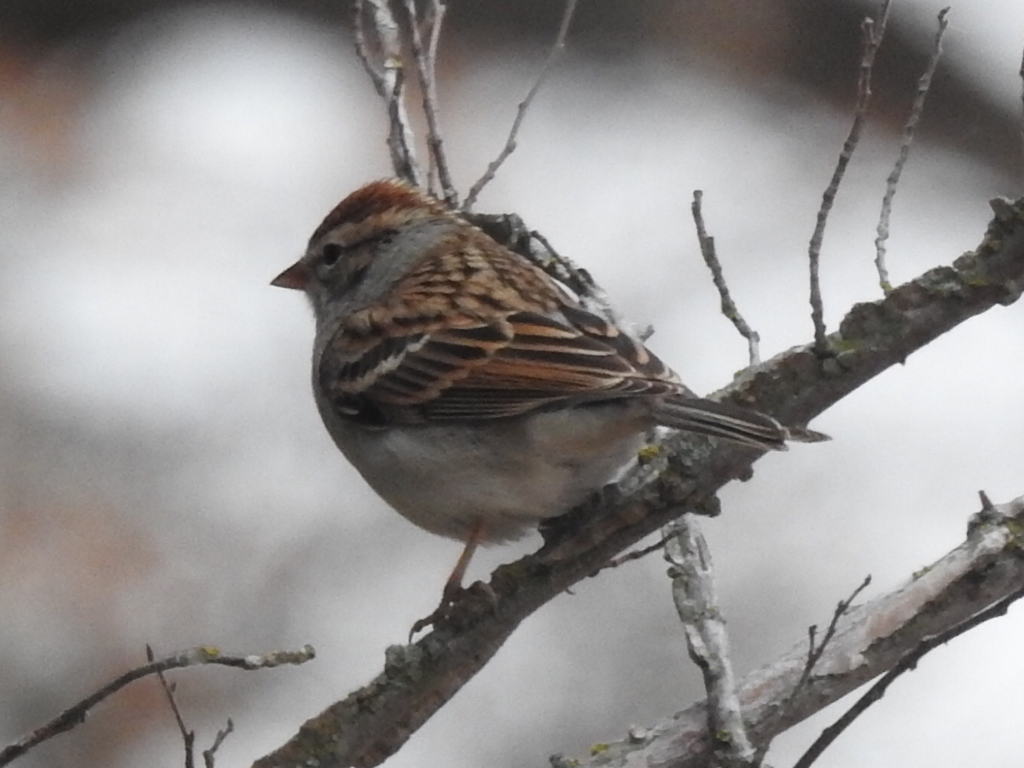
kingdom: Animalia
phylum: Chordata
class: Aves
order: Passeriformes
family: Passerellidae
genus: Spizella
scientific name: Spizella passerina
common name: Chipping sparrow
